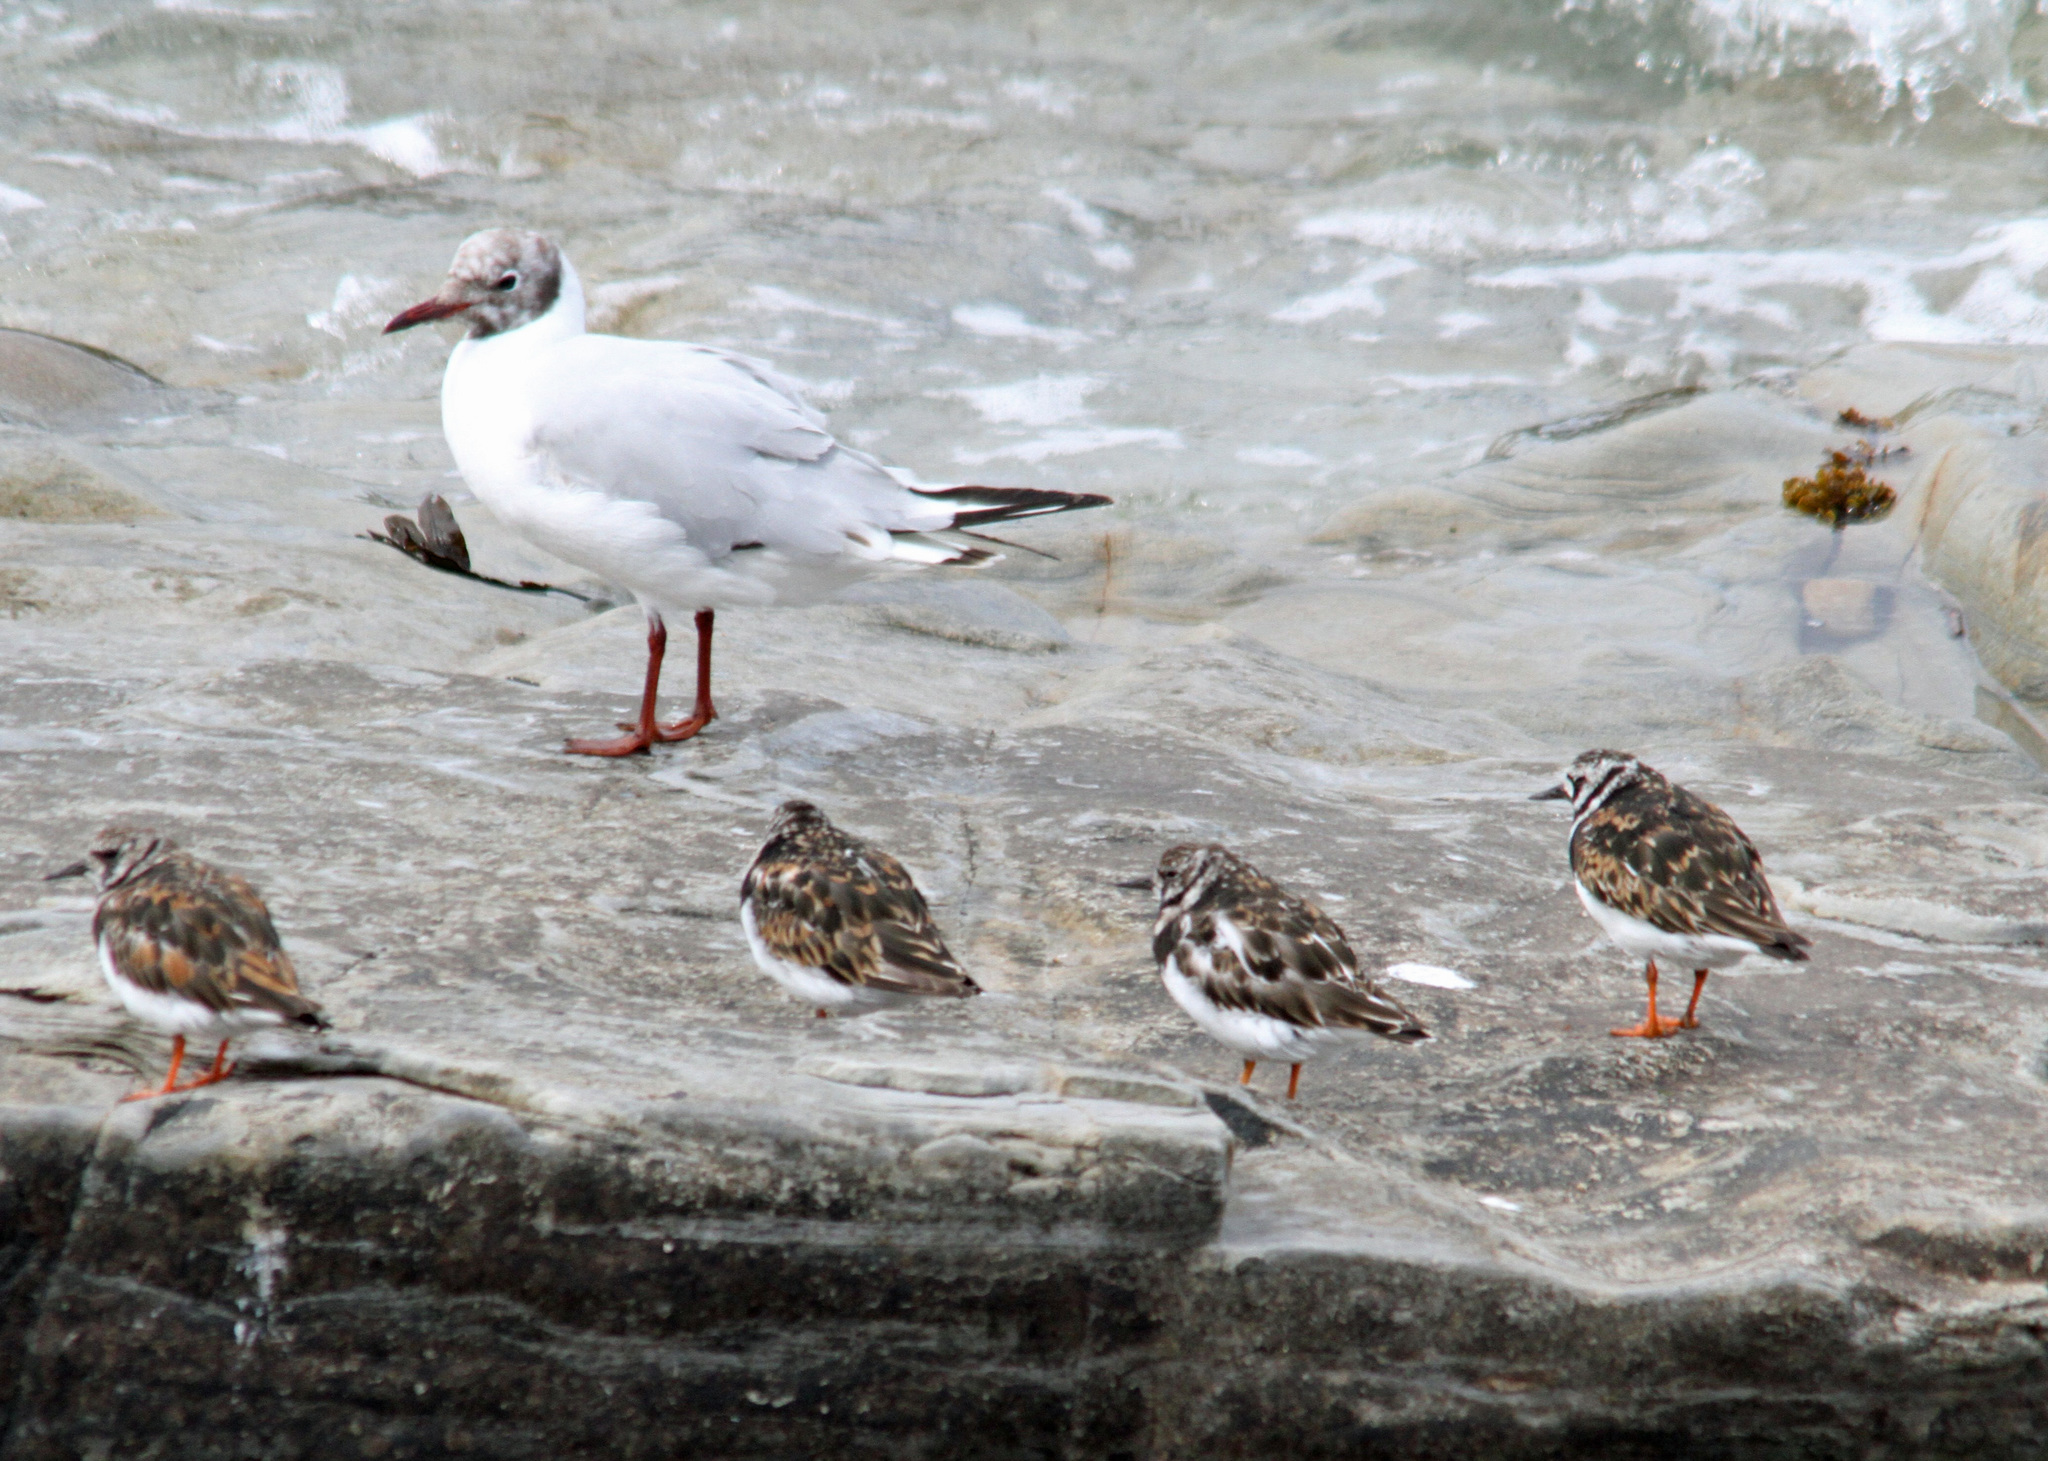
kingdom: Animalia
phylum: Chordata
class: Aves
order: Charadriiformes
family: Laridae
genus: Chroicocephalus
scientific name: Chroicocephalus ridibundus
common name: Black-headed gull
